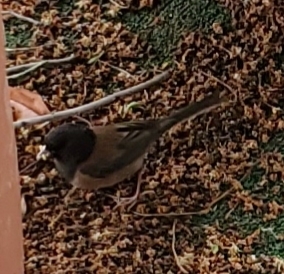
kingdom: Animalia
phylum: Chordata
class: Aves
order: Passeriformes
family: Passerellidae
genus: Junco
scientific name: Junco hyemalis
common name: Dark-eyed junco
